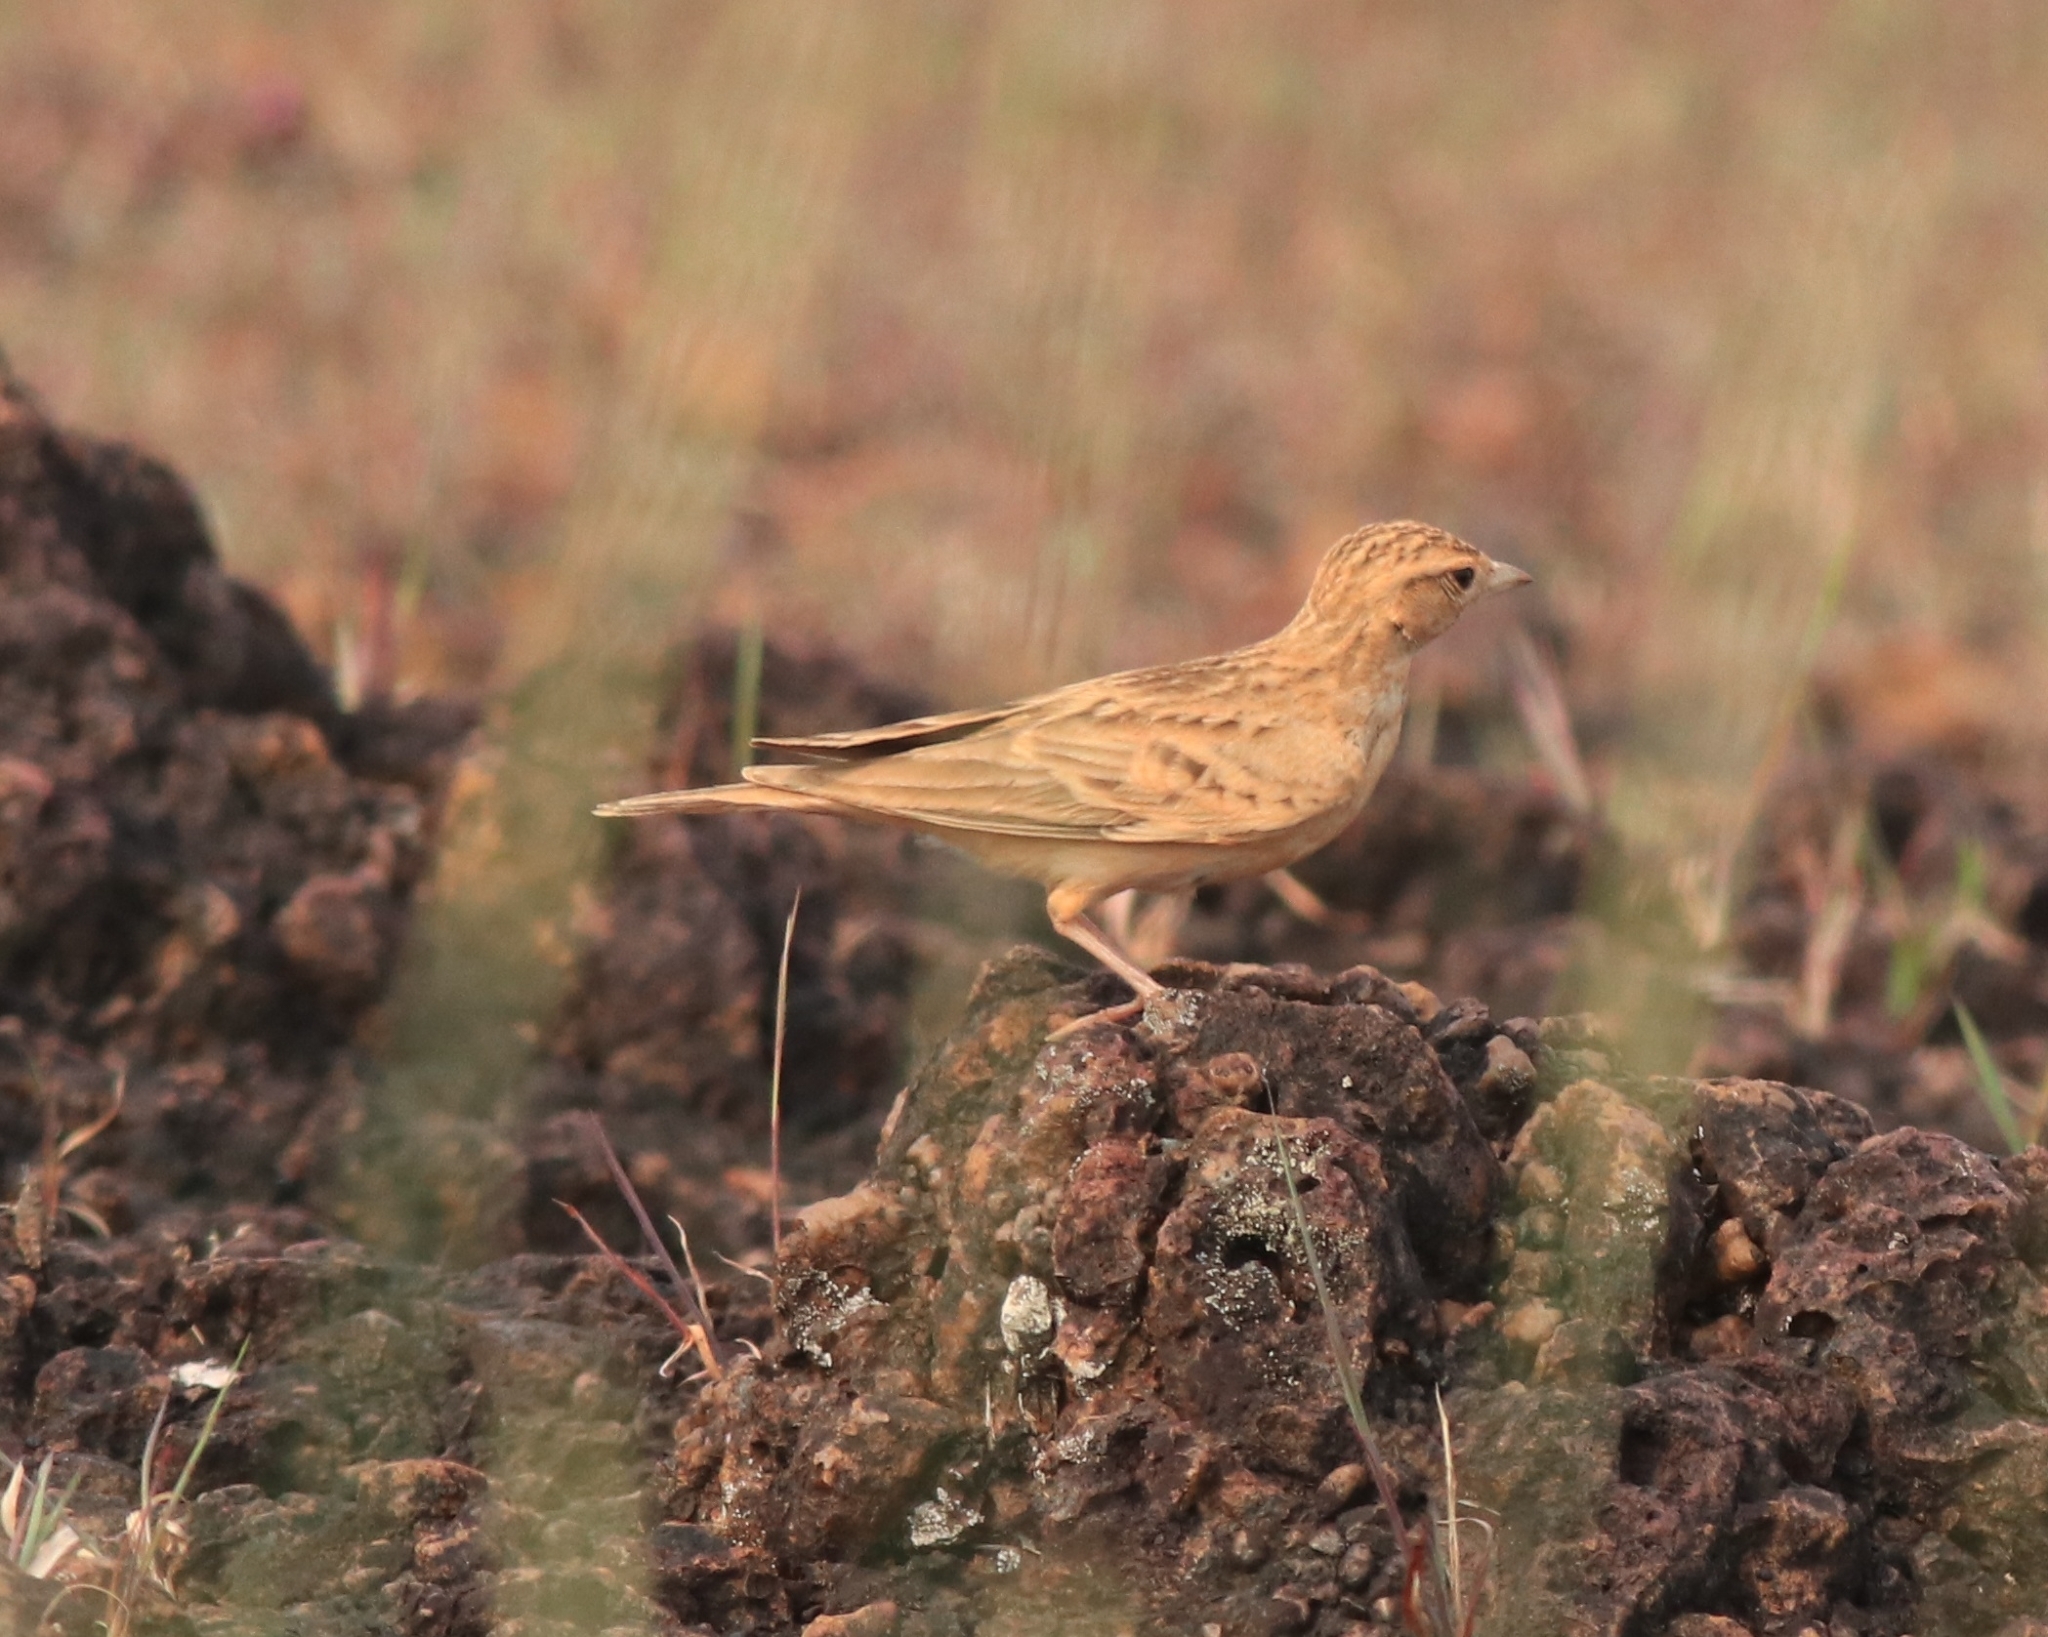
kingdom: Animalia
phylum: Chordata
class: Aves
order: Passeriformes
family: Alaudidae
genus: Calandrella
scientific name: Calandrella brachydactyla
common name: Greater short-toed lark
